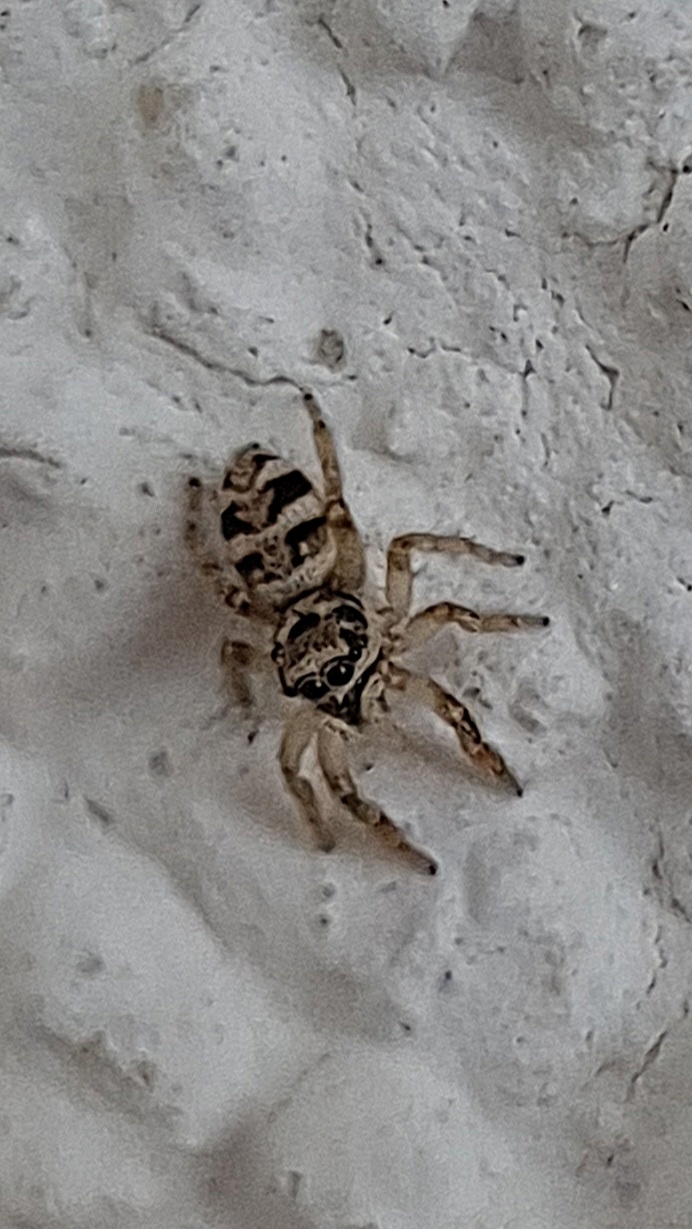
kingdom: Animalia
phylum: Arthropoda
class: Arachnida
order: Araneae
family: Salticidae
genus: Salticus
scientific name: Salticus scenicus
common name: Zebra jumper
